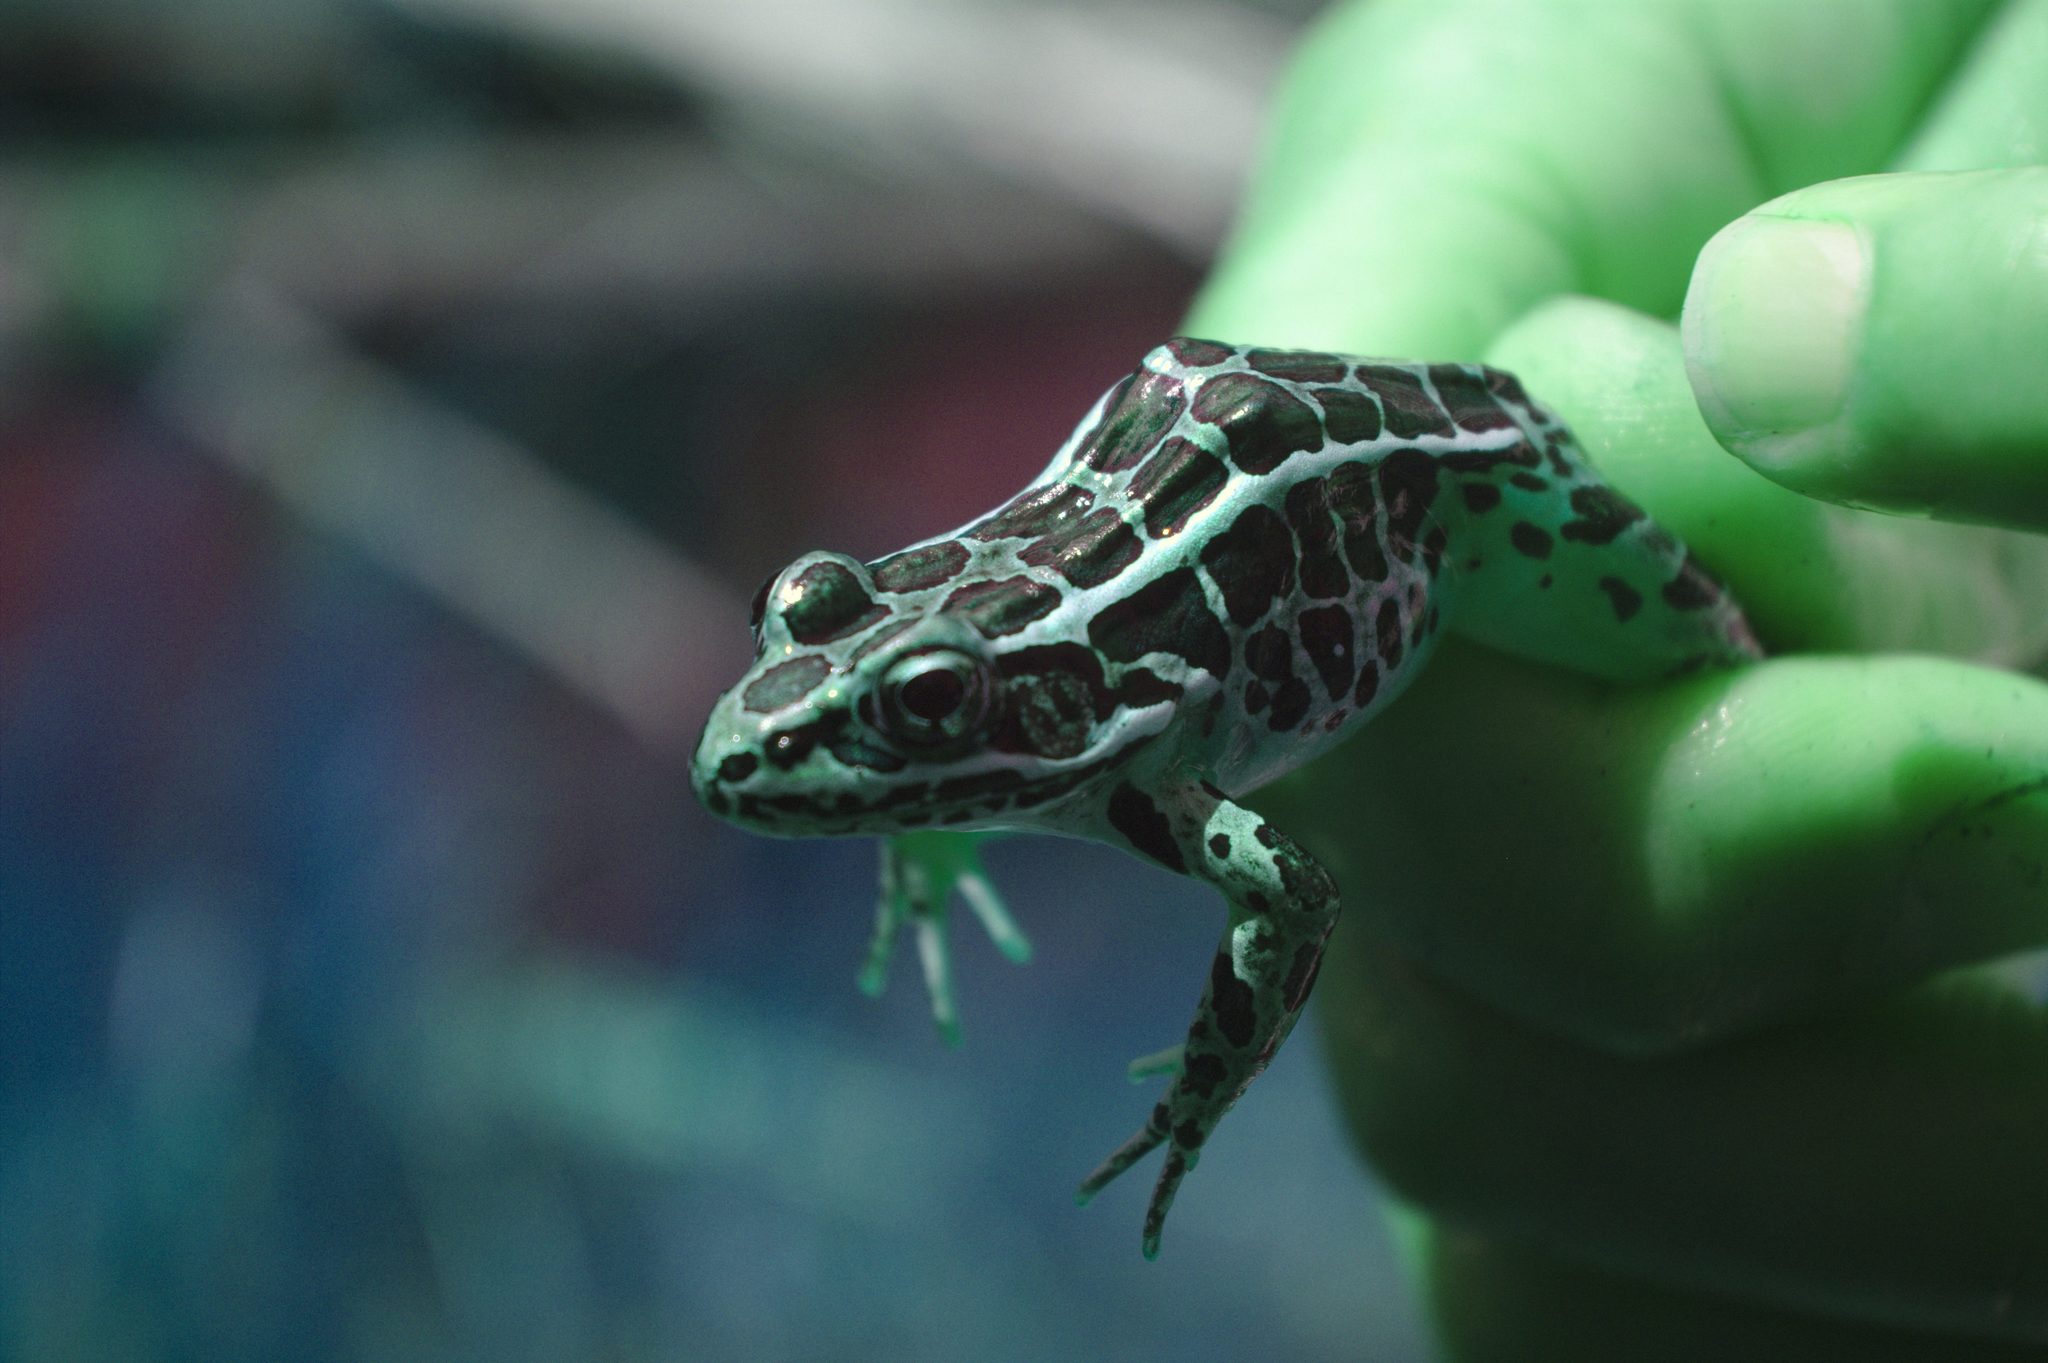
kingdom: Animalia
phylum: Chordata
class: Amphibia
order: Anura
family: Ranidae
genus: Lithobates
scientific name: Lithobates palustris
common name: Pickerel frog
